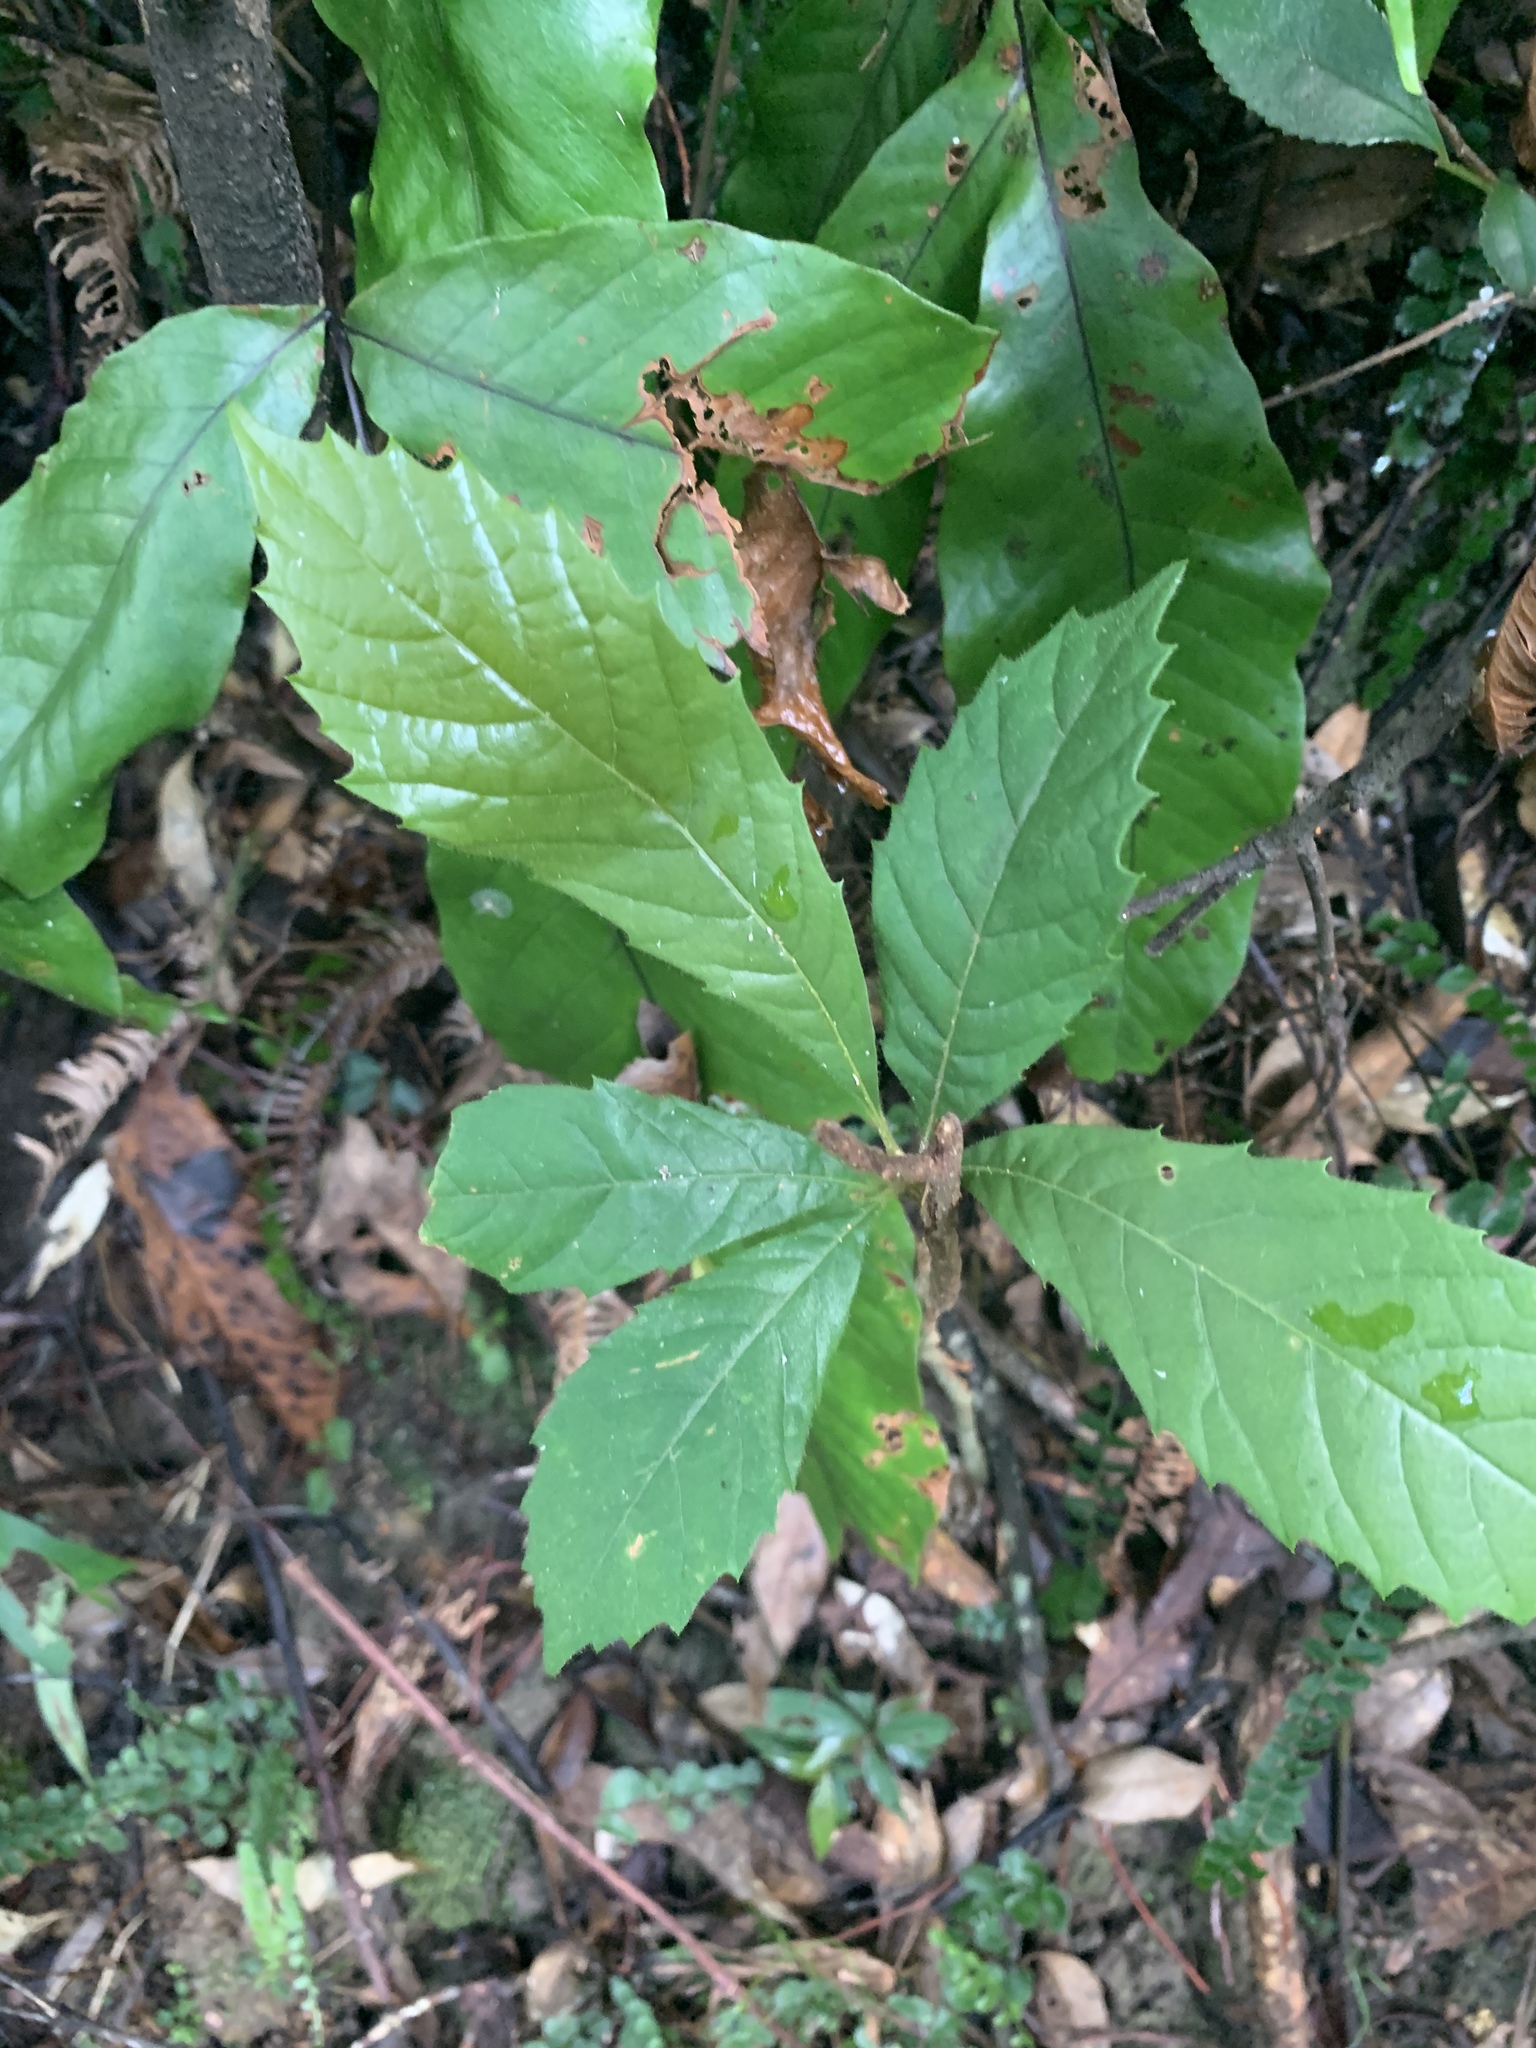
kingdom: Plantae
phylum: Tracheophyta
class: Magnoliopsida
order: Proteales
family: Sabiaceae
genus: Meliosma
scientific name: Meliosma rigida
